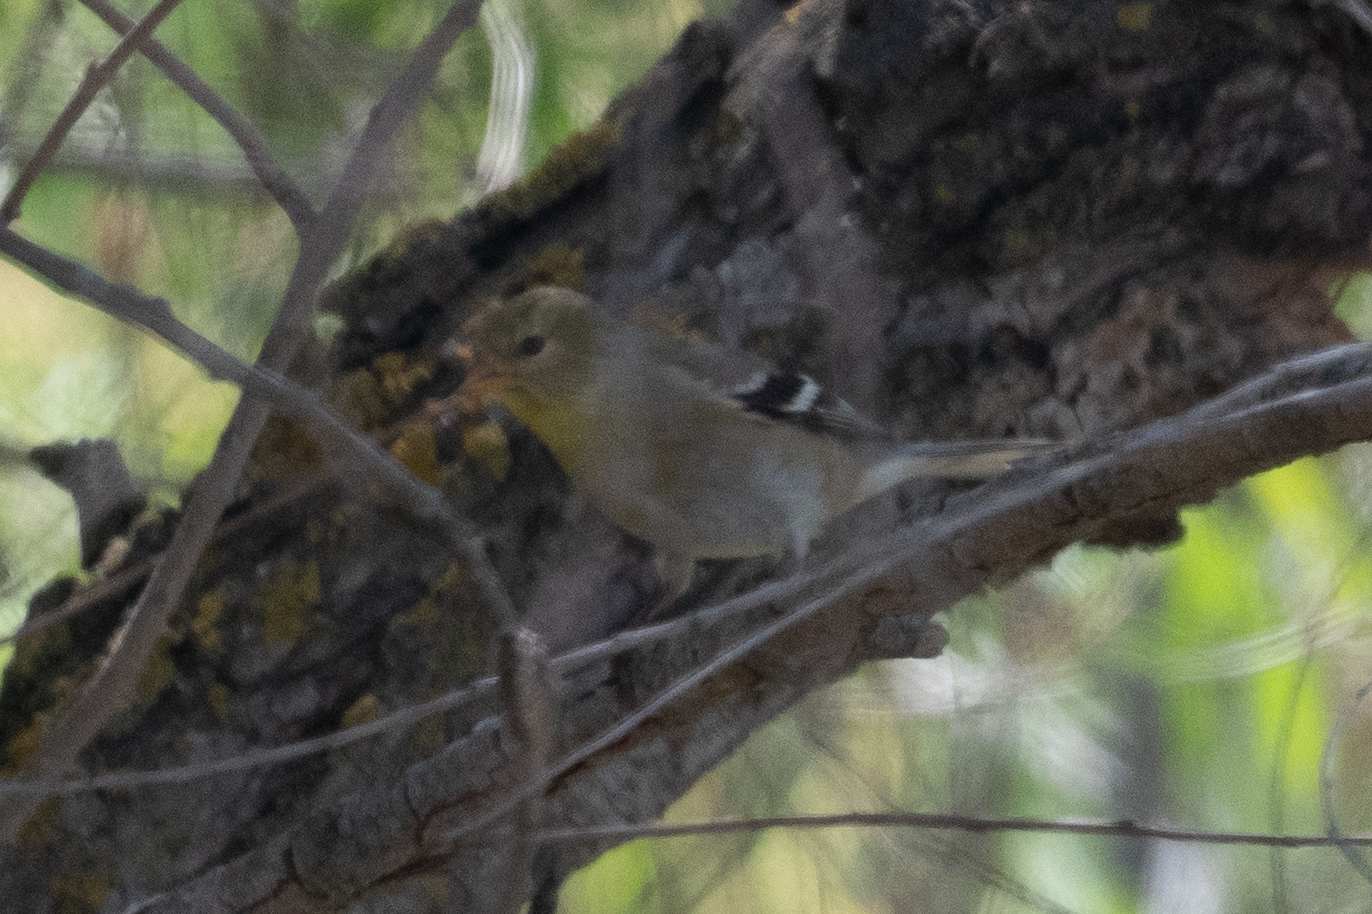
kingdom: Animalia
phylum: Chordata
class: Aves
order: Passeriformes
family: Fringillidae
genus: Spinus
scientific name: Spinus tristis
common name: American goldfinch
